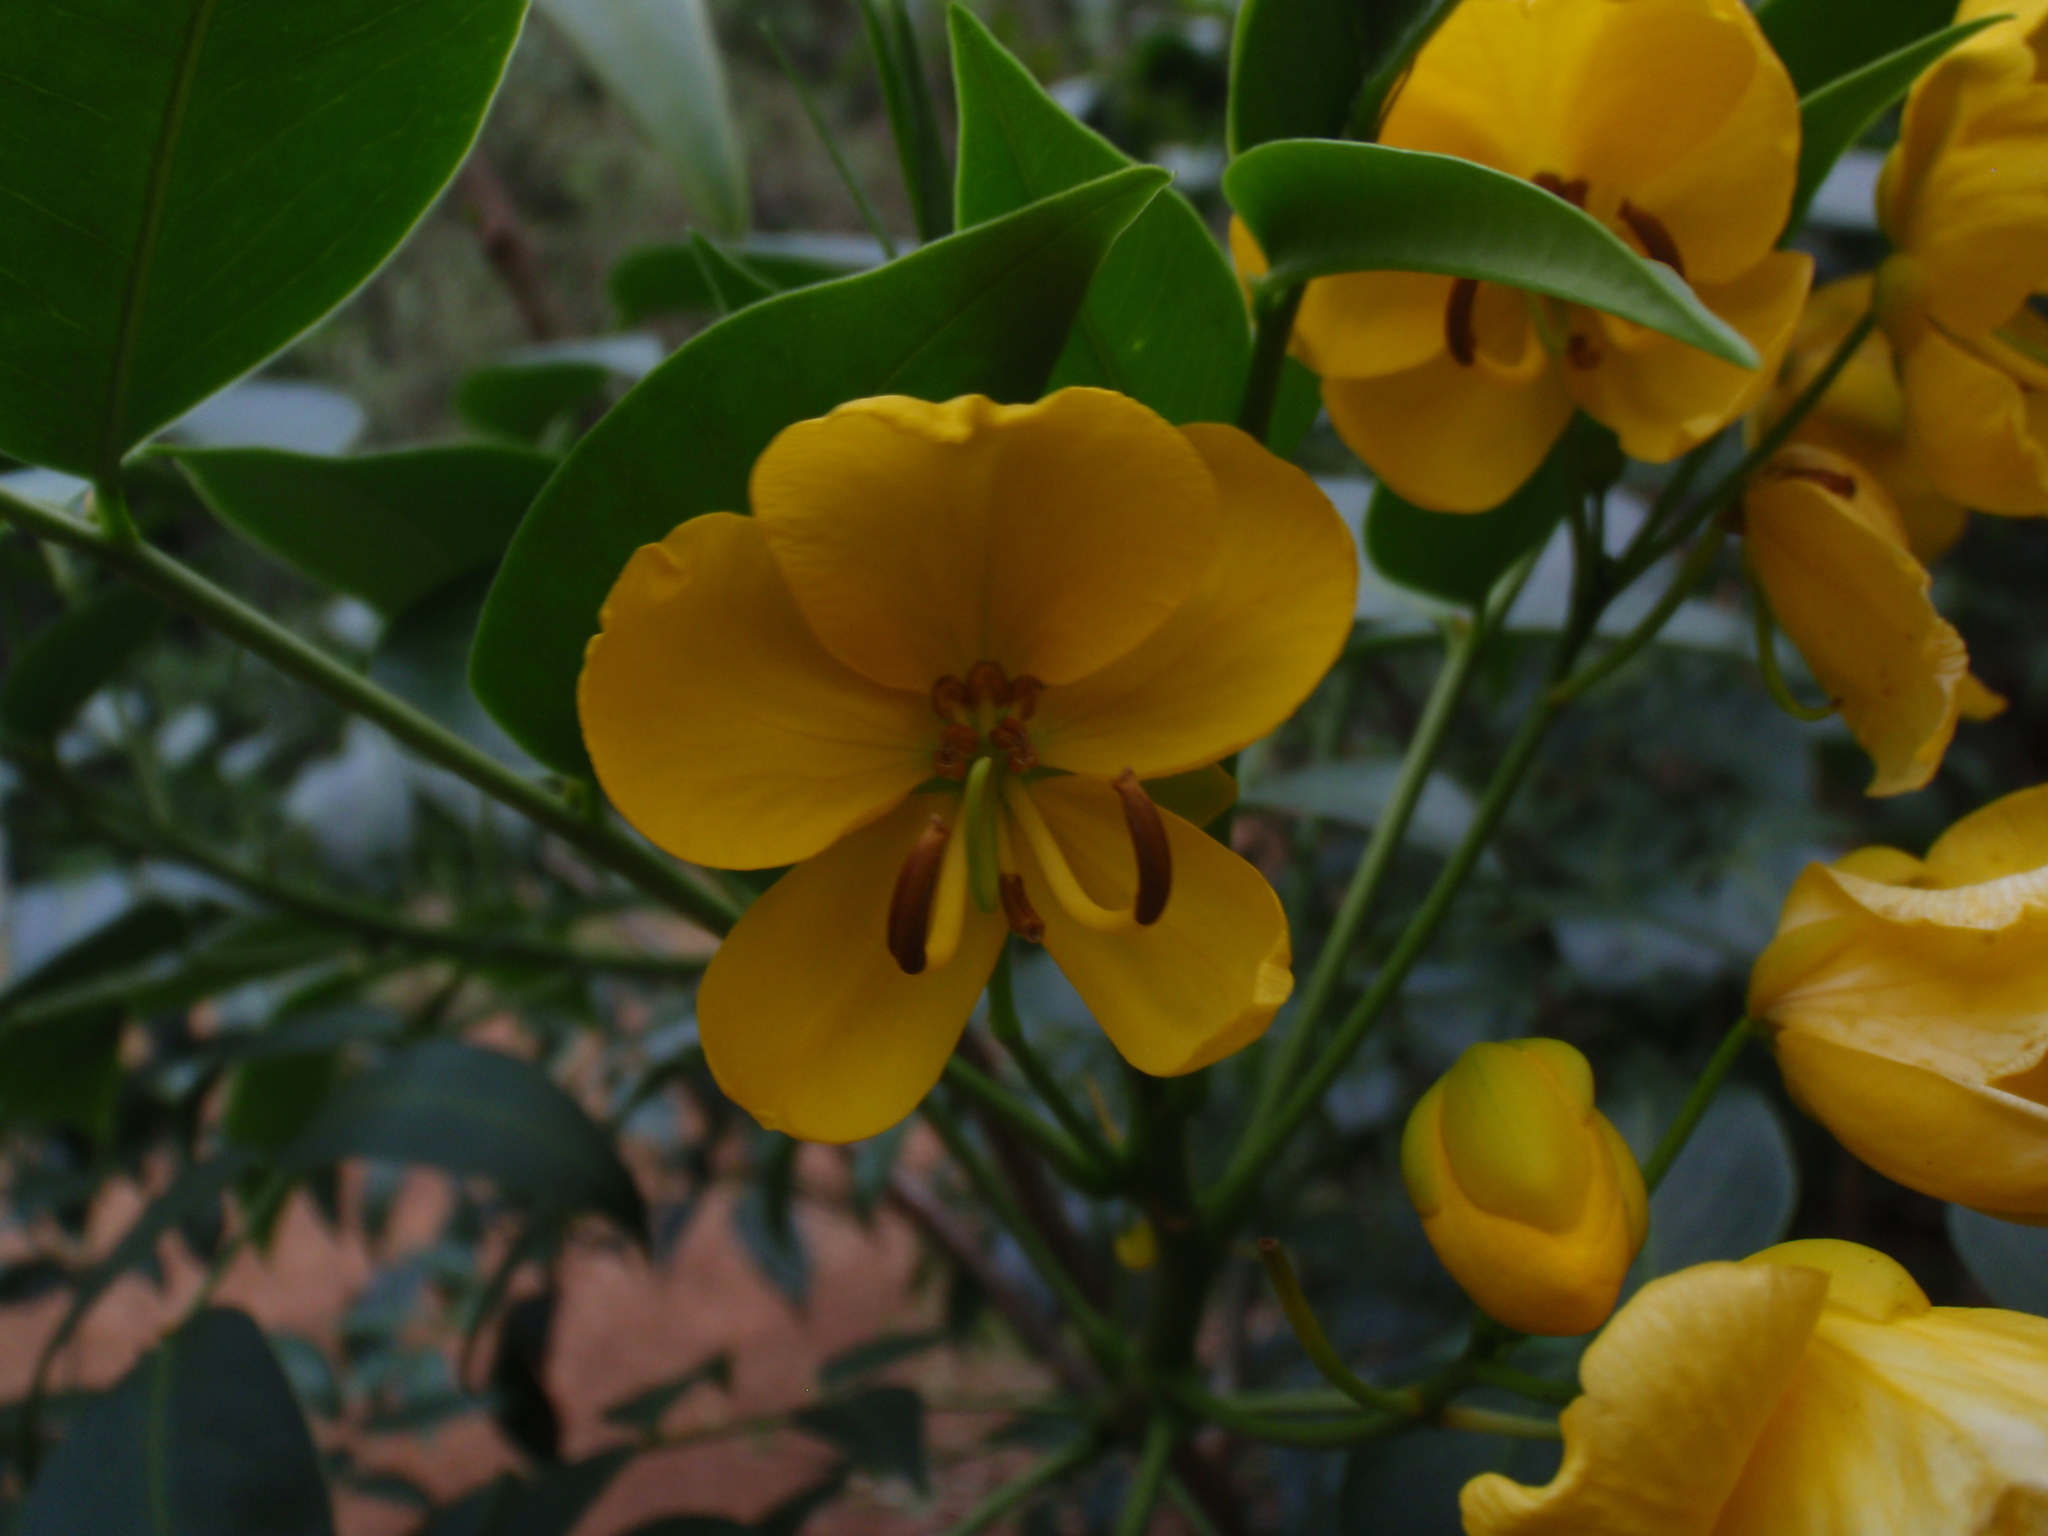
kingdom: Plantae
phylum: Tracheophyta
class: Magnoliopsida
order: Fabales
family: Fabaceae
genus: Senna
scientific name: Senna septemtrionalis
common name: Arsenic bush
